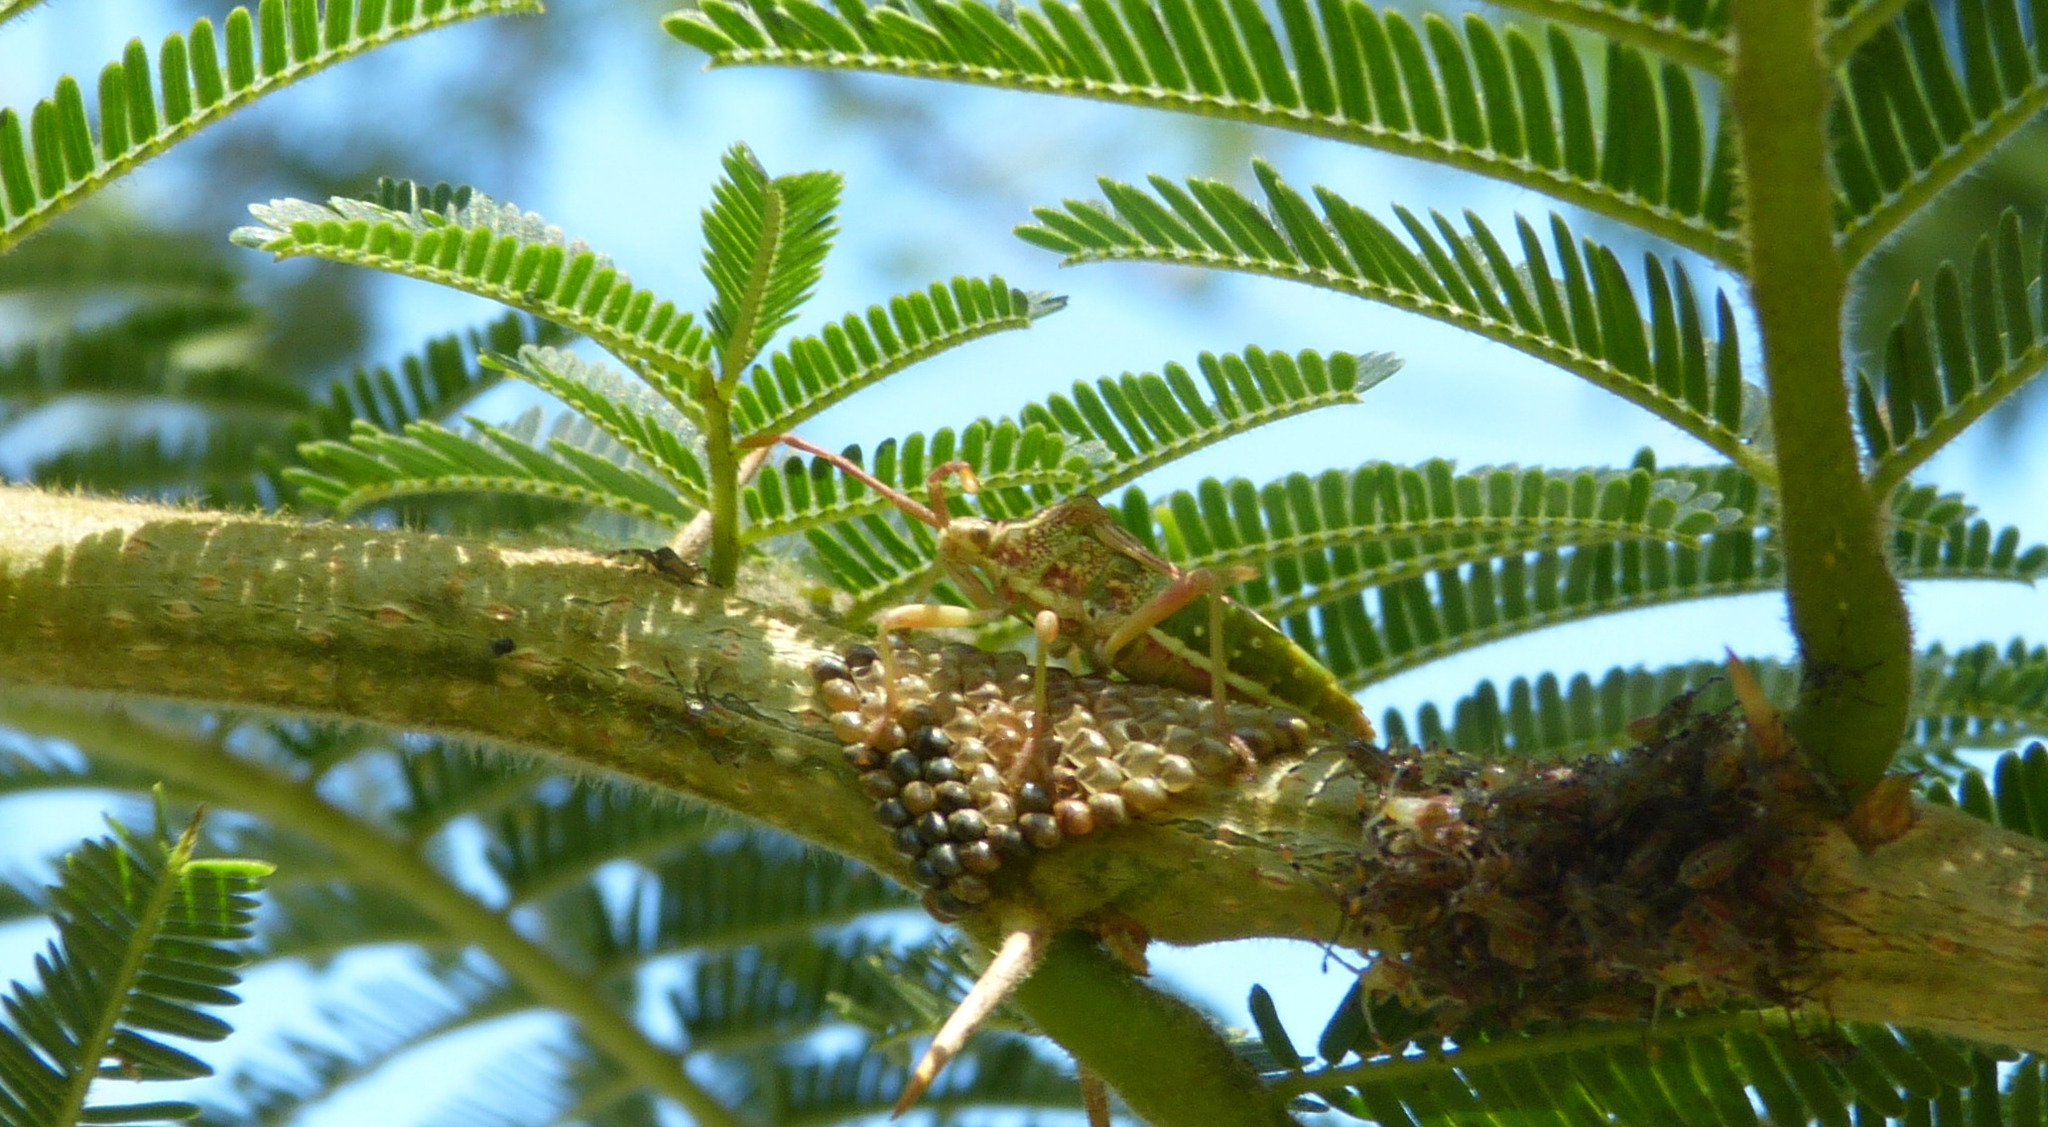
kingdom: Animalia
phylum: Arthropoda
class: Insecta
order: Hemiptera
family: Coreidae
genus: Ceratopachys
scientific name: Ceratopachys nigricornis
